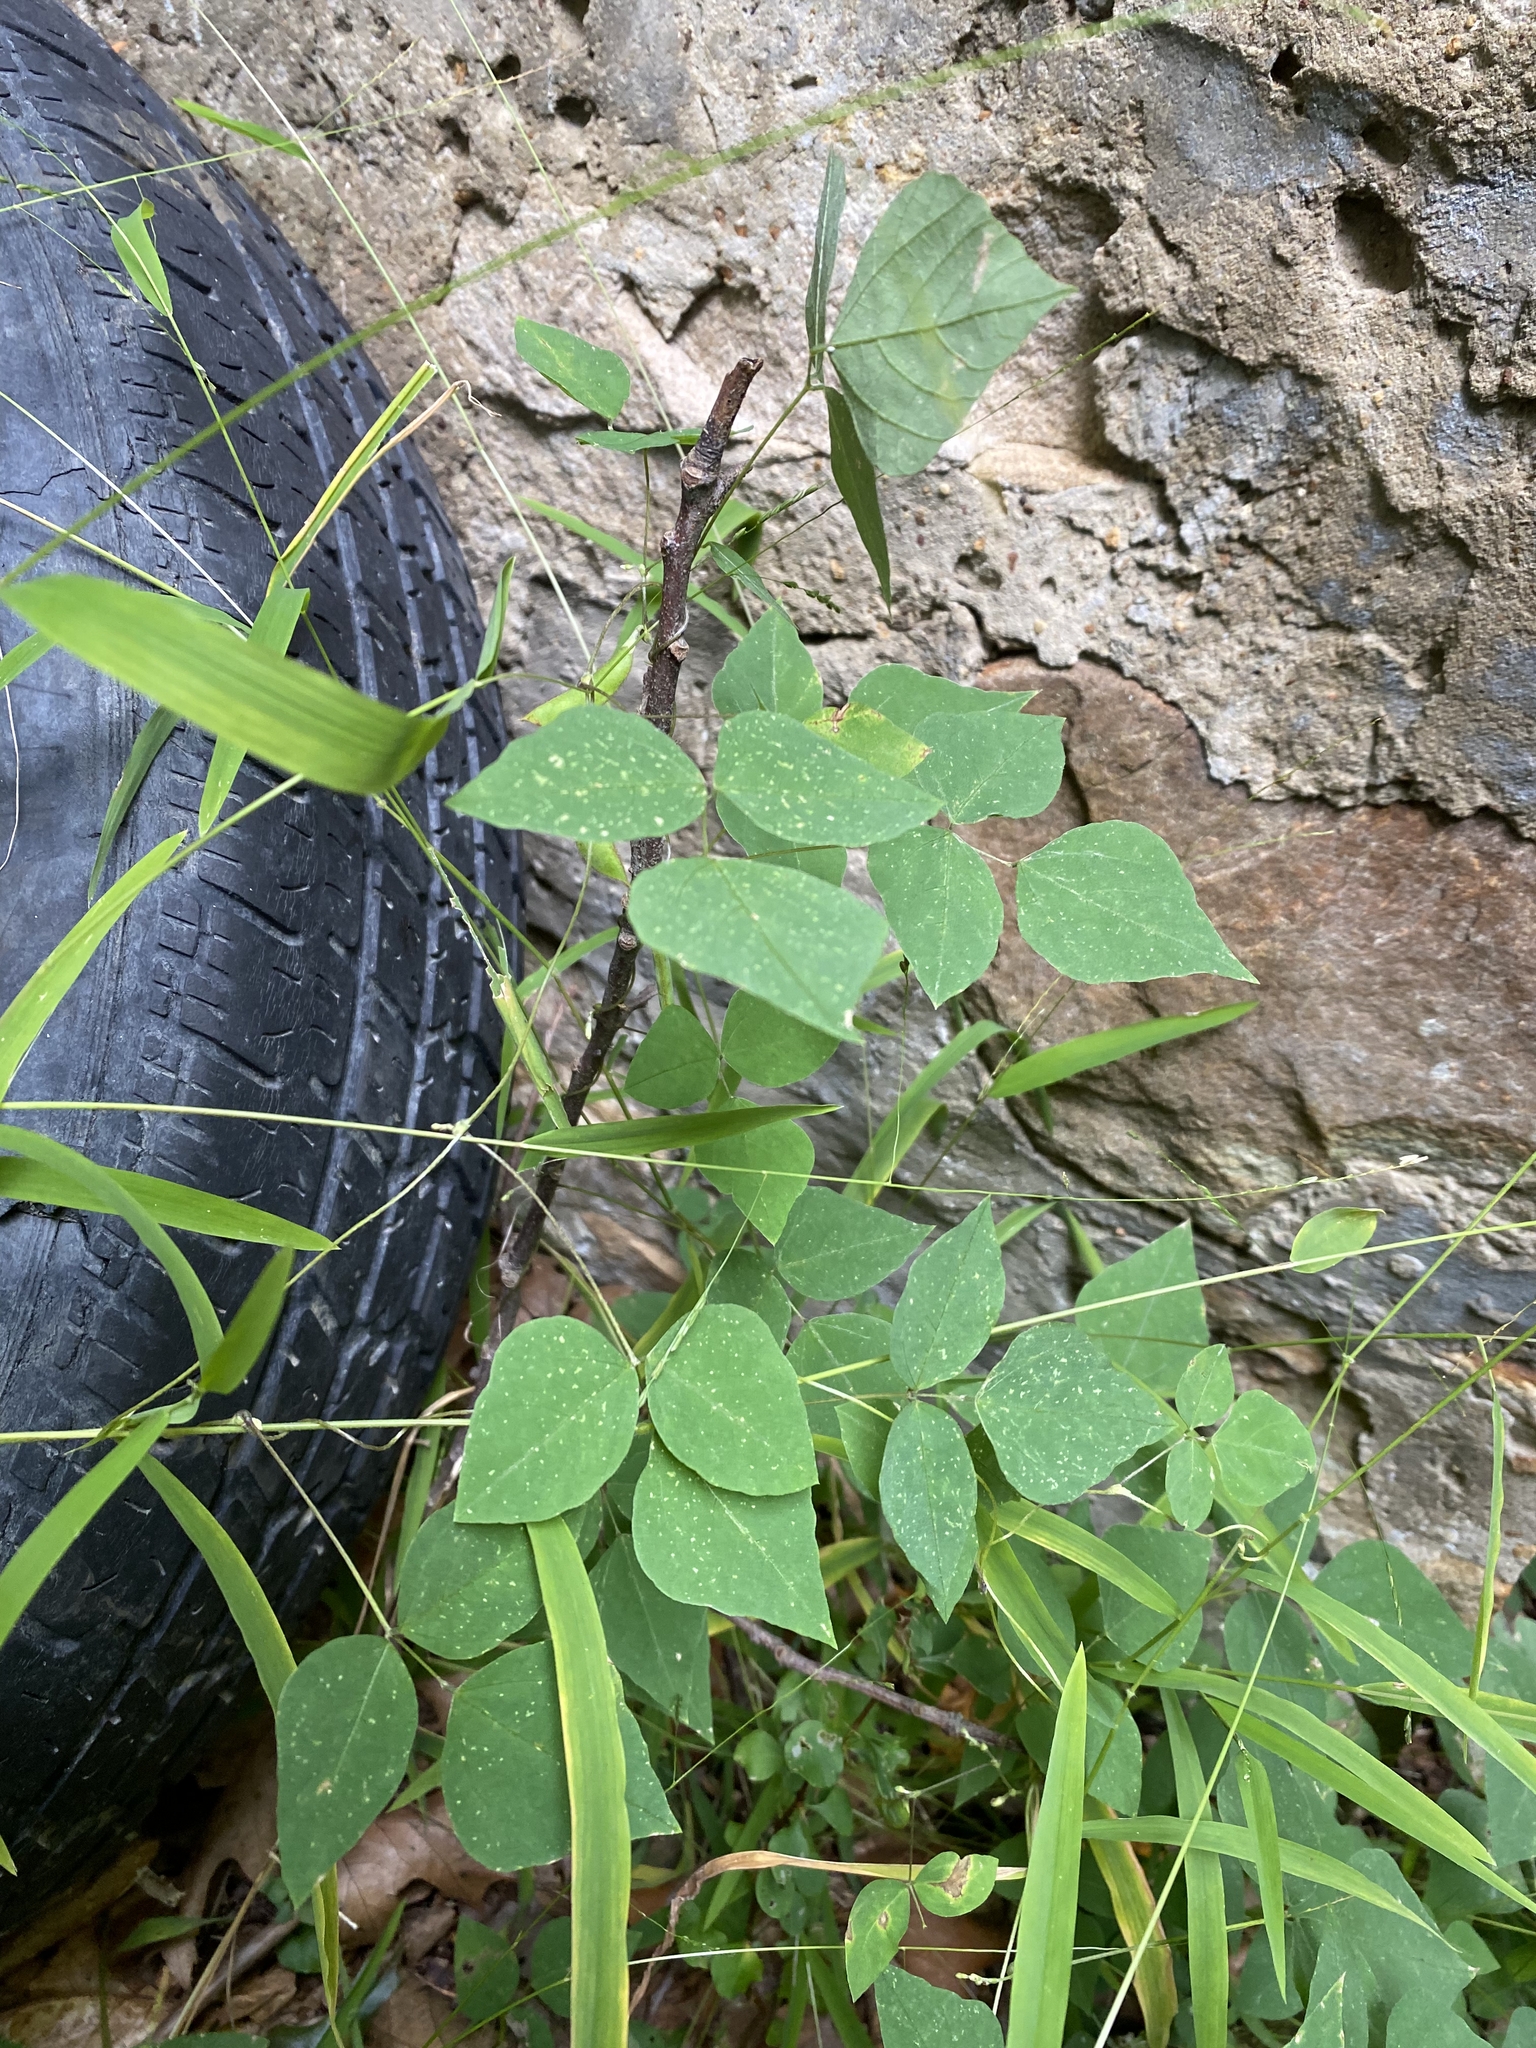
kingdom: Plantae
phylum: Tracheophyta
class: Magnoliopsida
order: Fabales
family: Fabaceae
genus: Amphicarpaea
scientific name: Amphicarpaea bracteata
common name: American hog peanut
